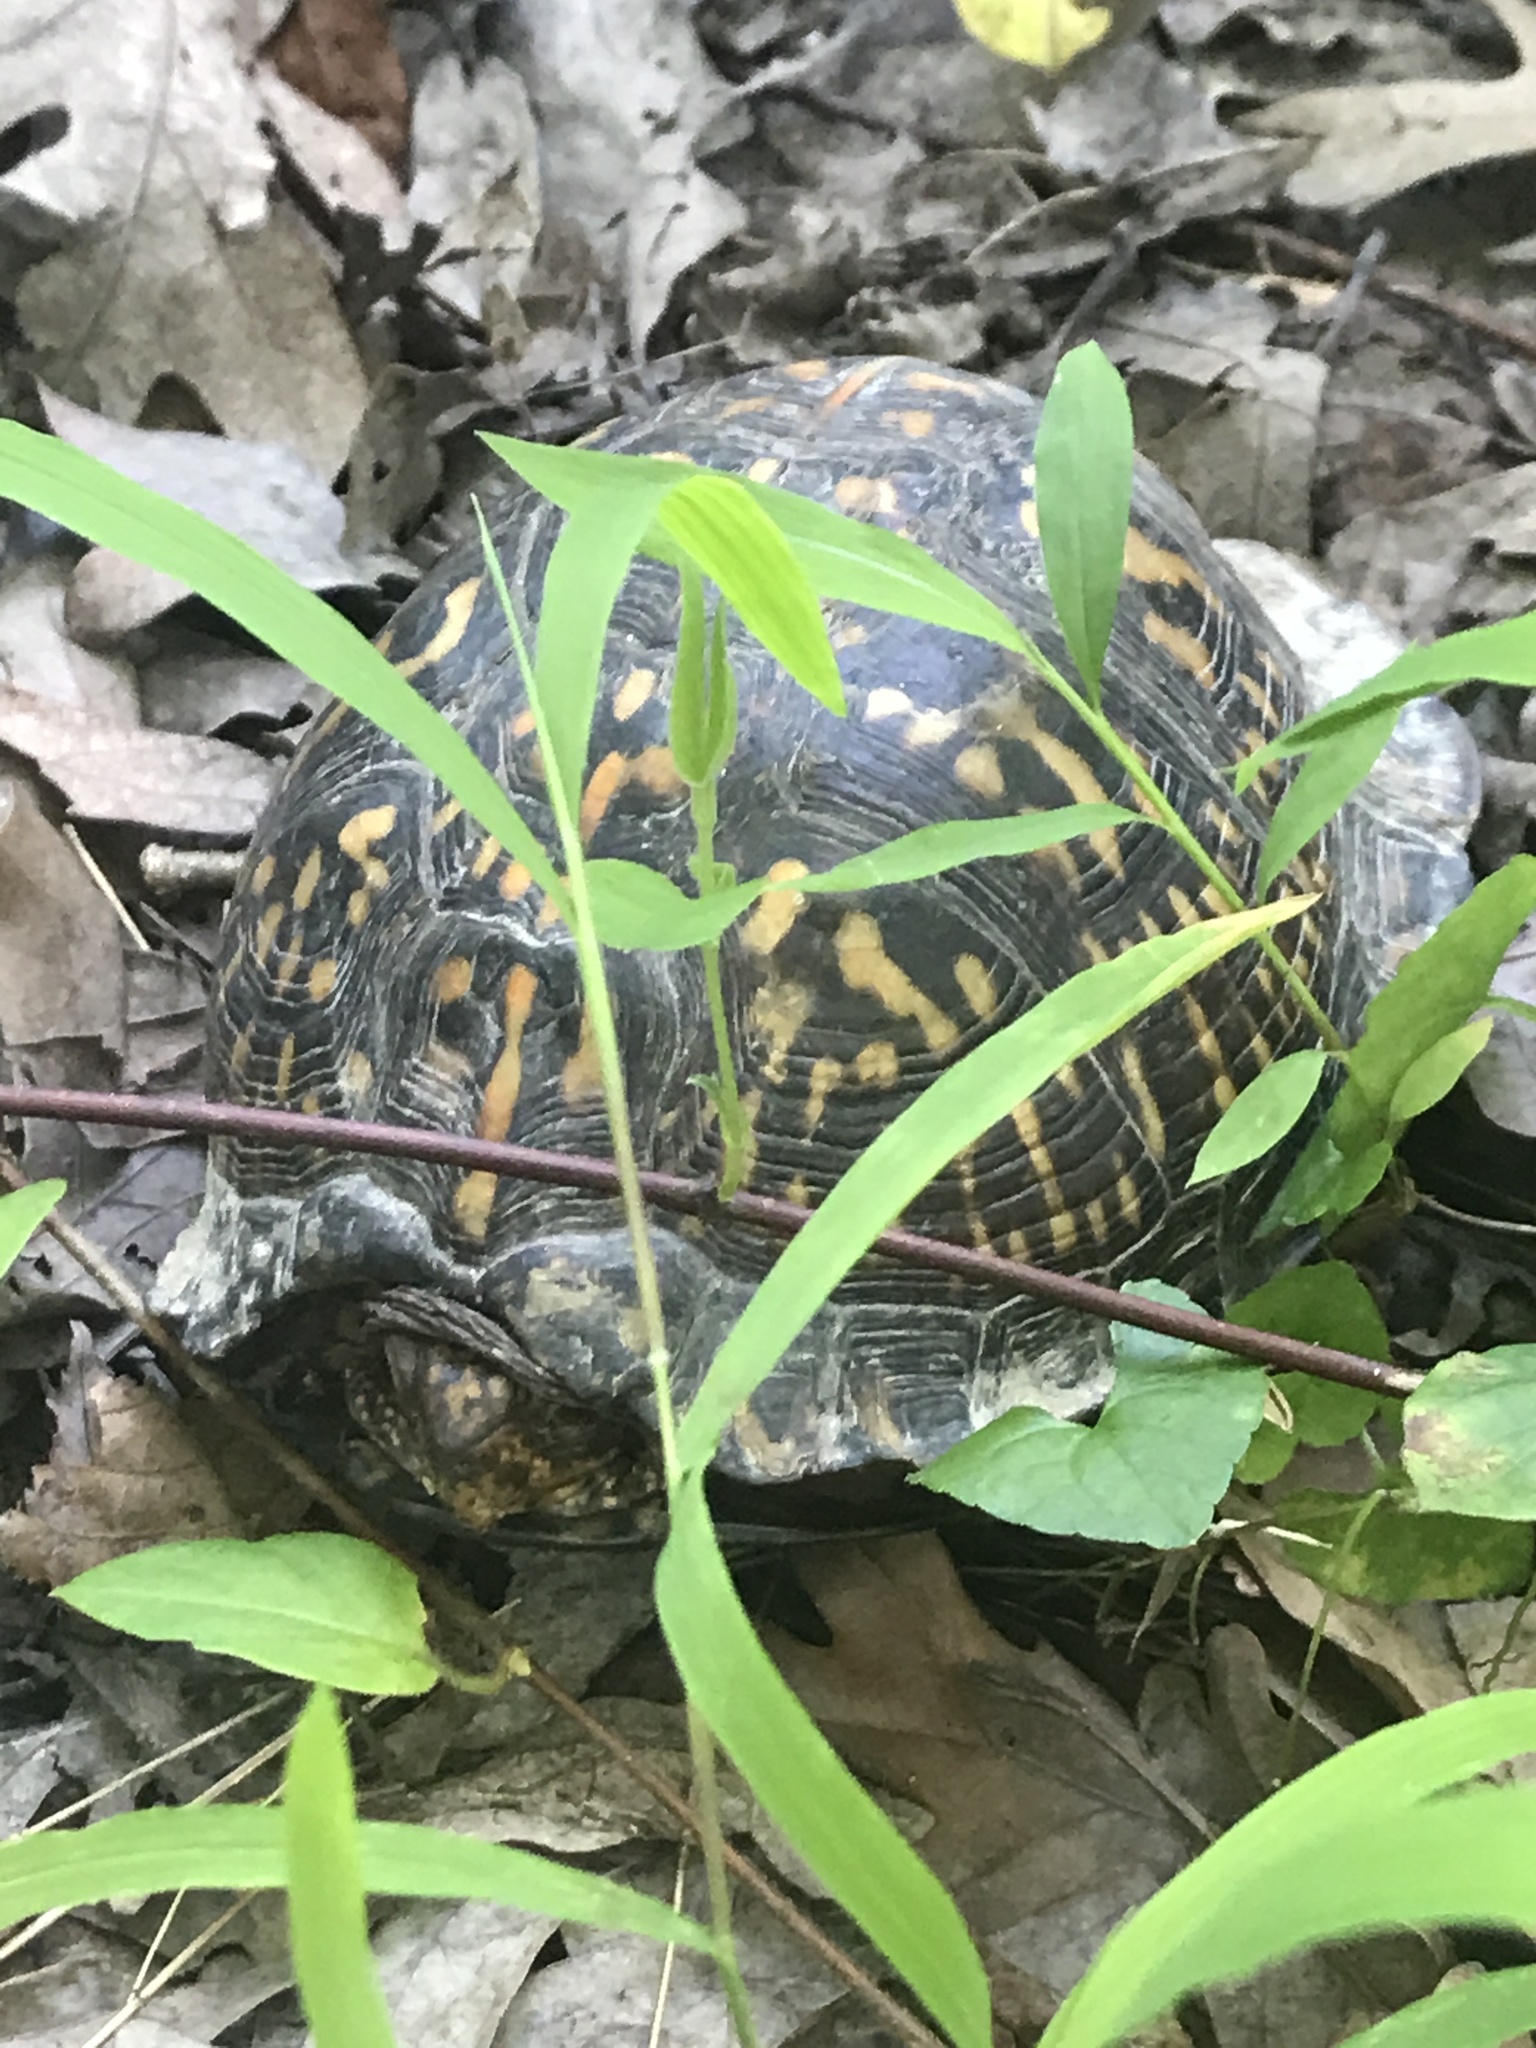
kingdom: Animalia
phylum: Chordata
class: Testudines
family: Emydidae
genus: Terrapene
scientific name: Terrapene carolina
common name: Common box turtle
